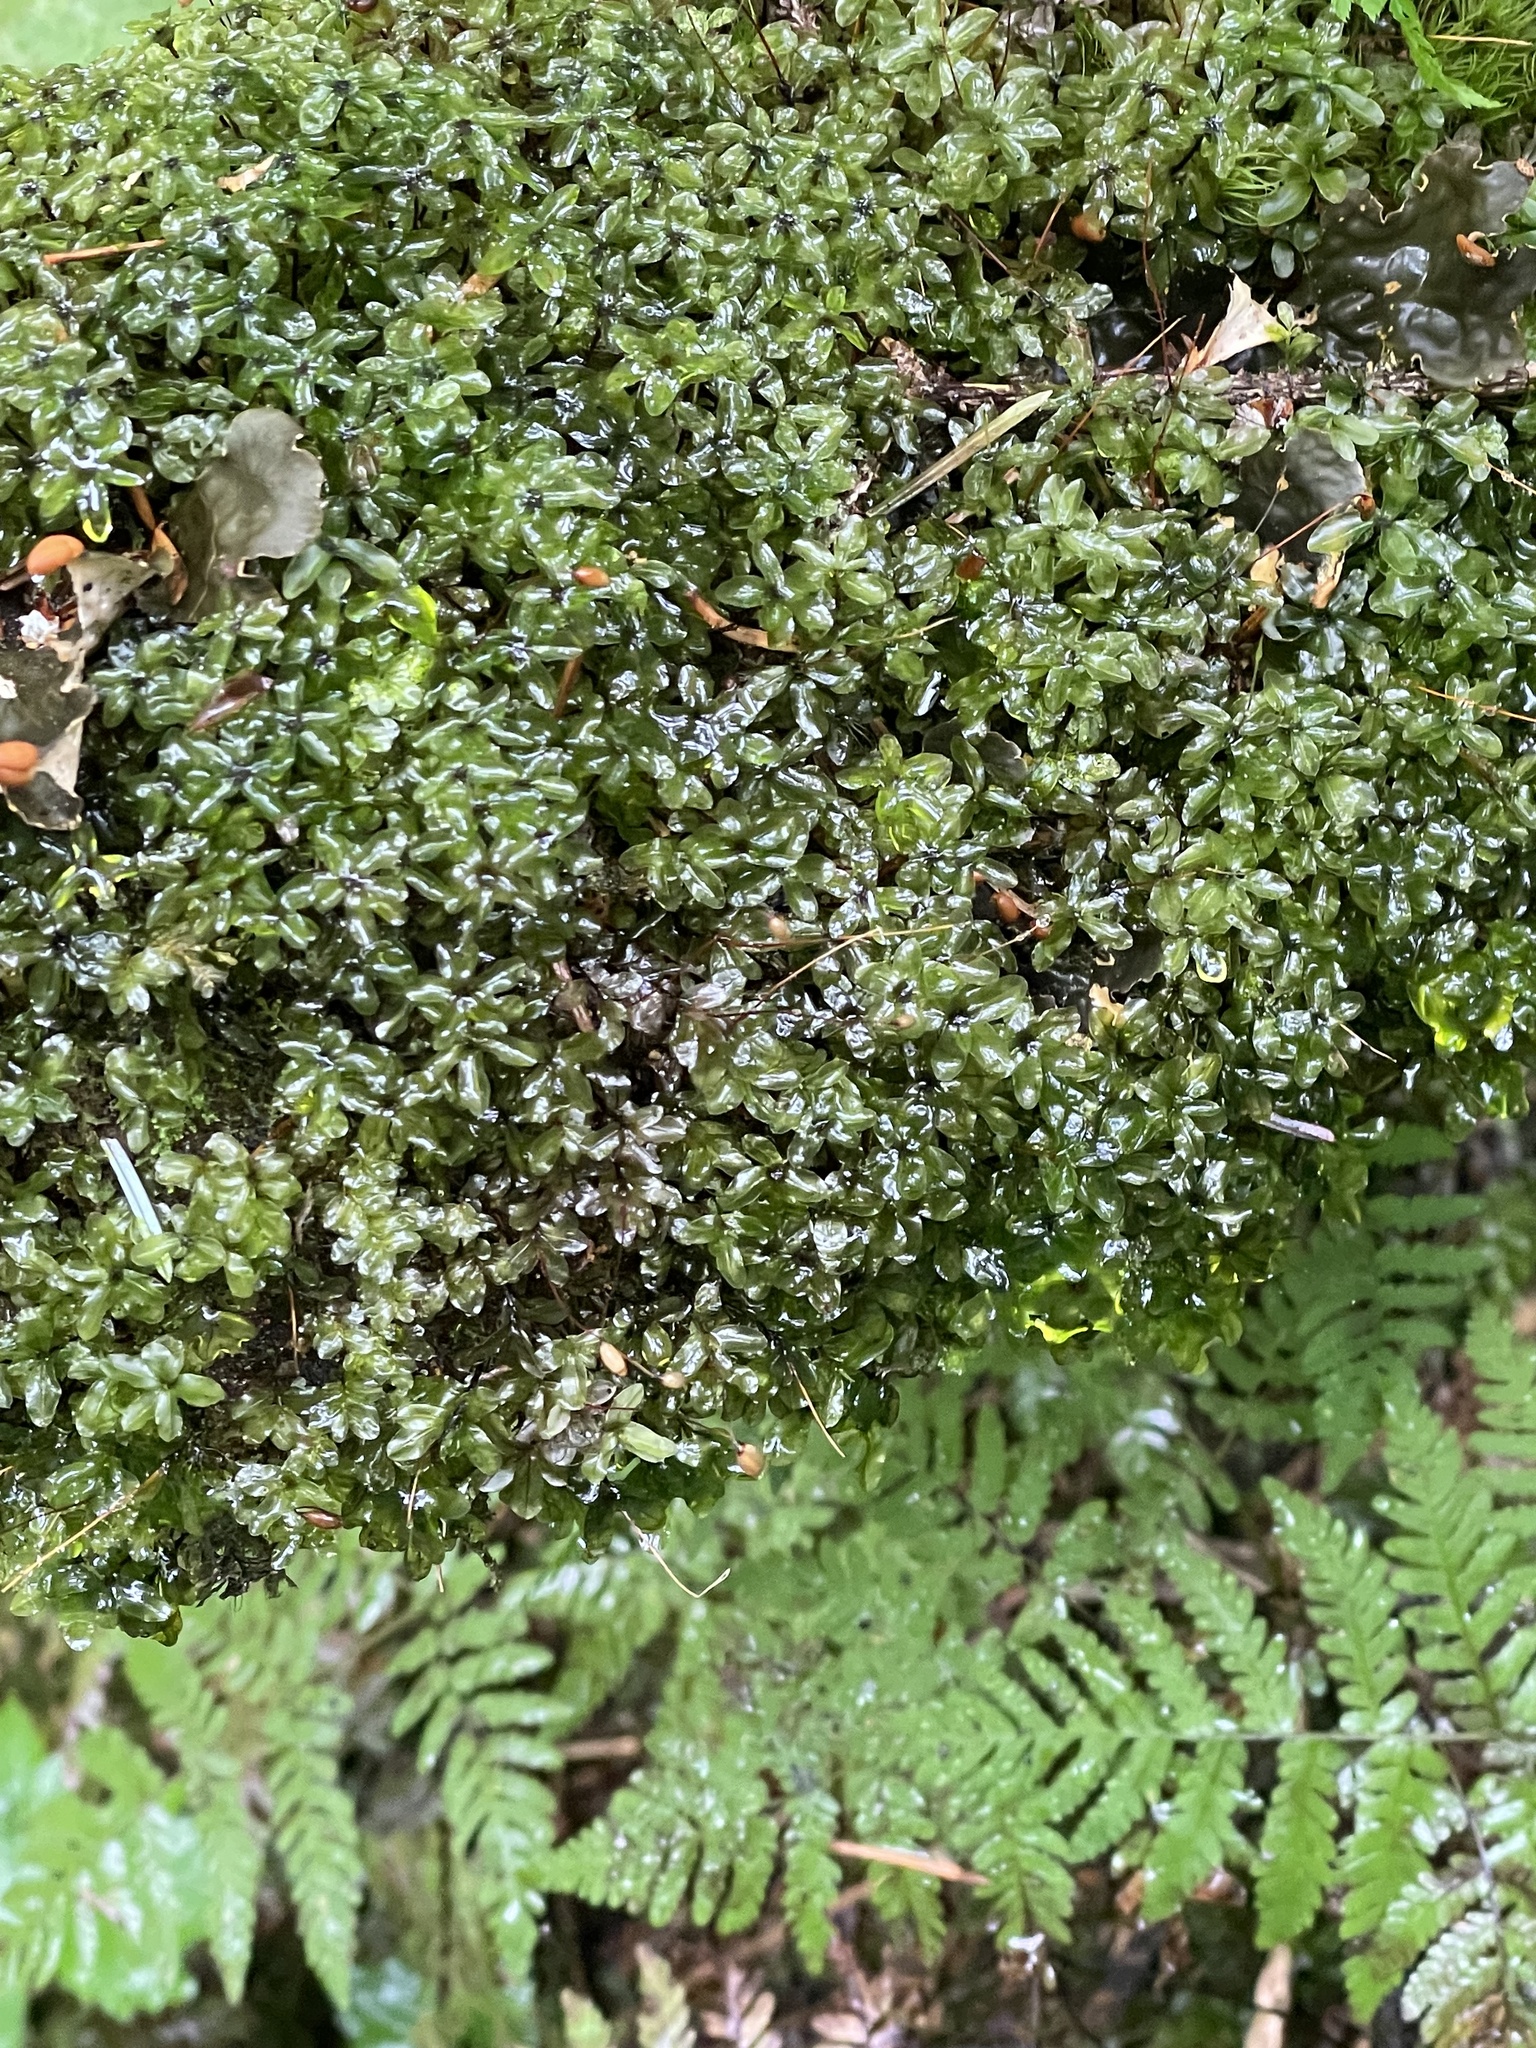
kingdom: Plantae
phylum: Bryophyta
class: Bryopsida
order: Bryales
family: Mniaceae
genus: Rhizomnium
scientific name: Rhizomnium glabrescens
